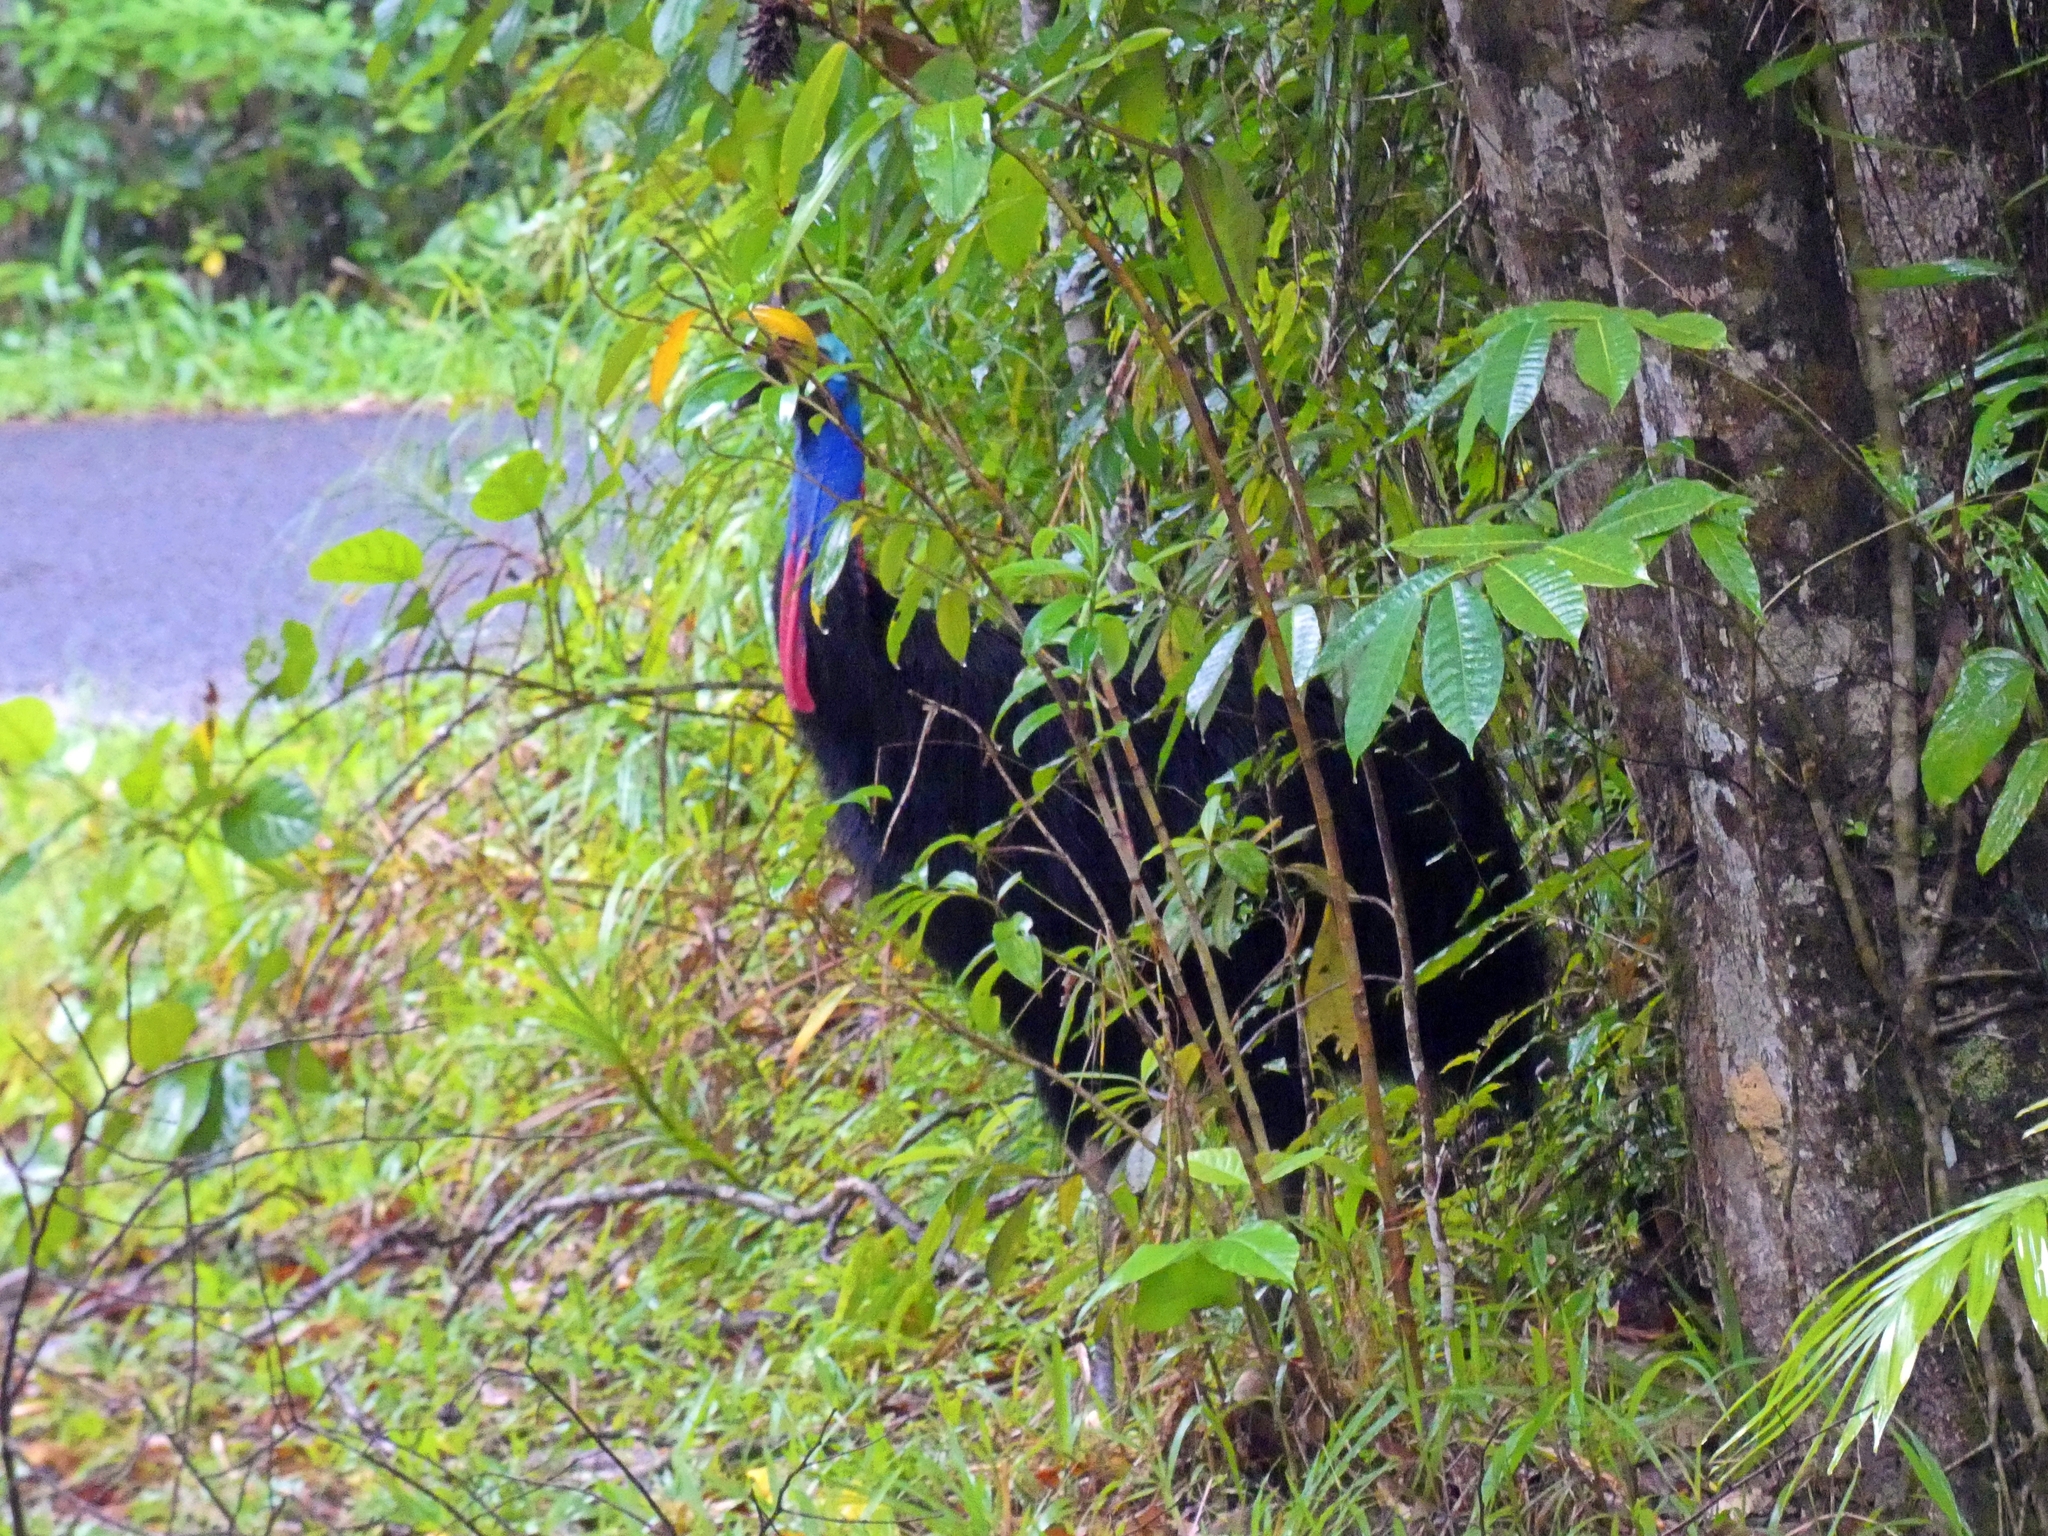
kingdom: Animalia
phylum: Chordata
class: Aves
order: Casuariiformes
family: Casuariidae
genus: Casuarius
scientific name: Casuarius casuarius
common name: Southern cassowary
